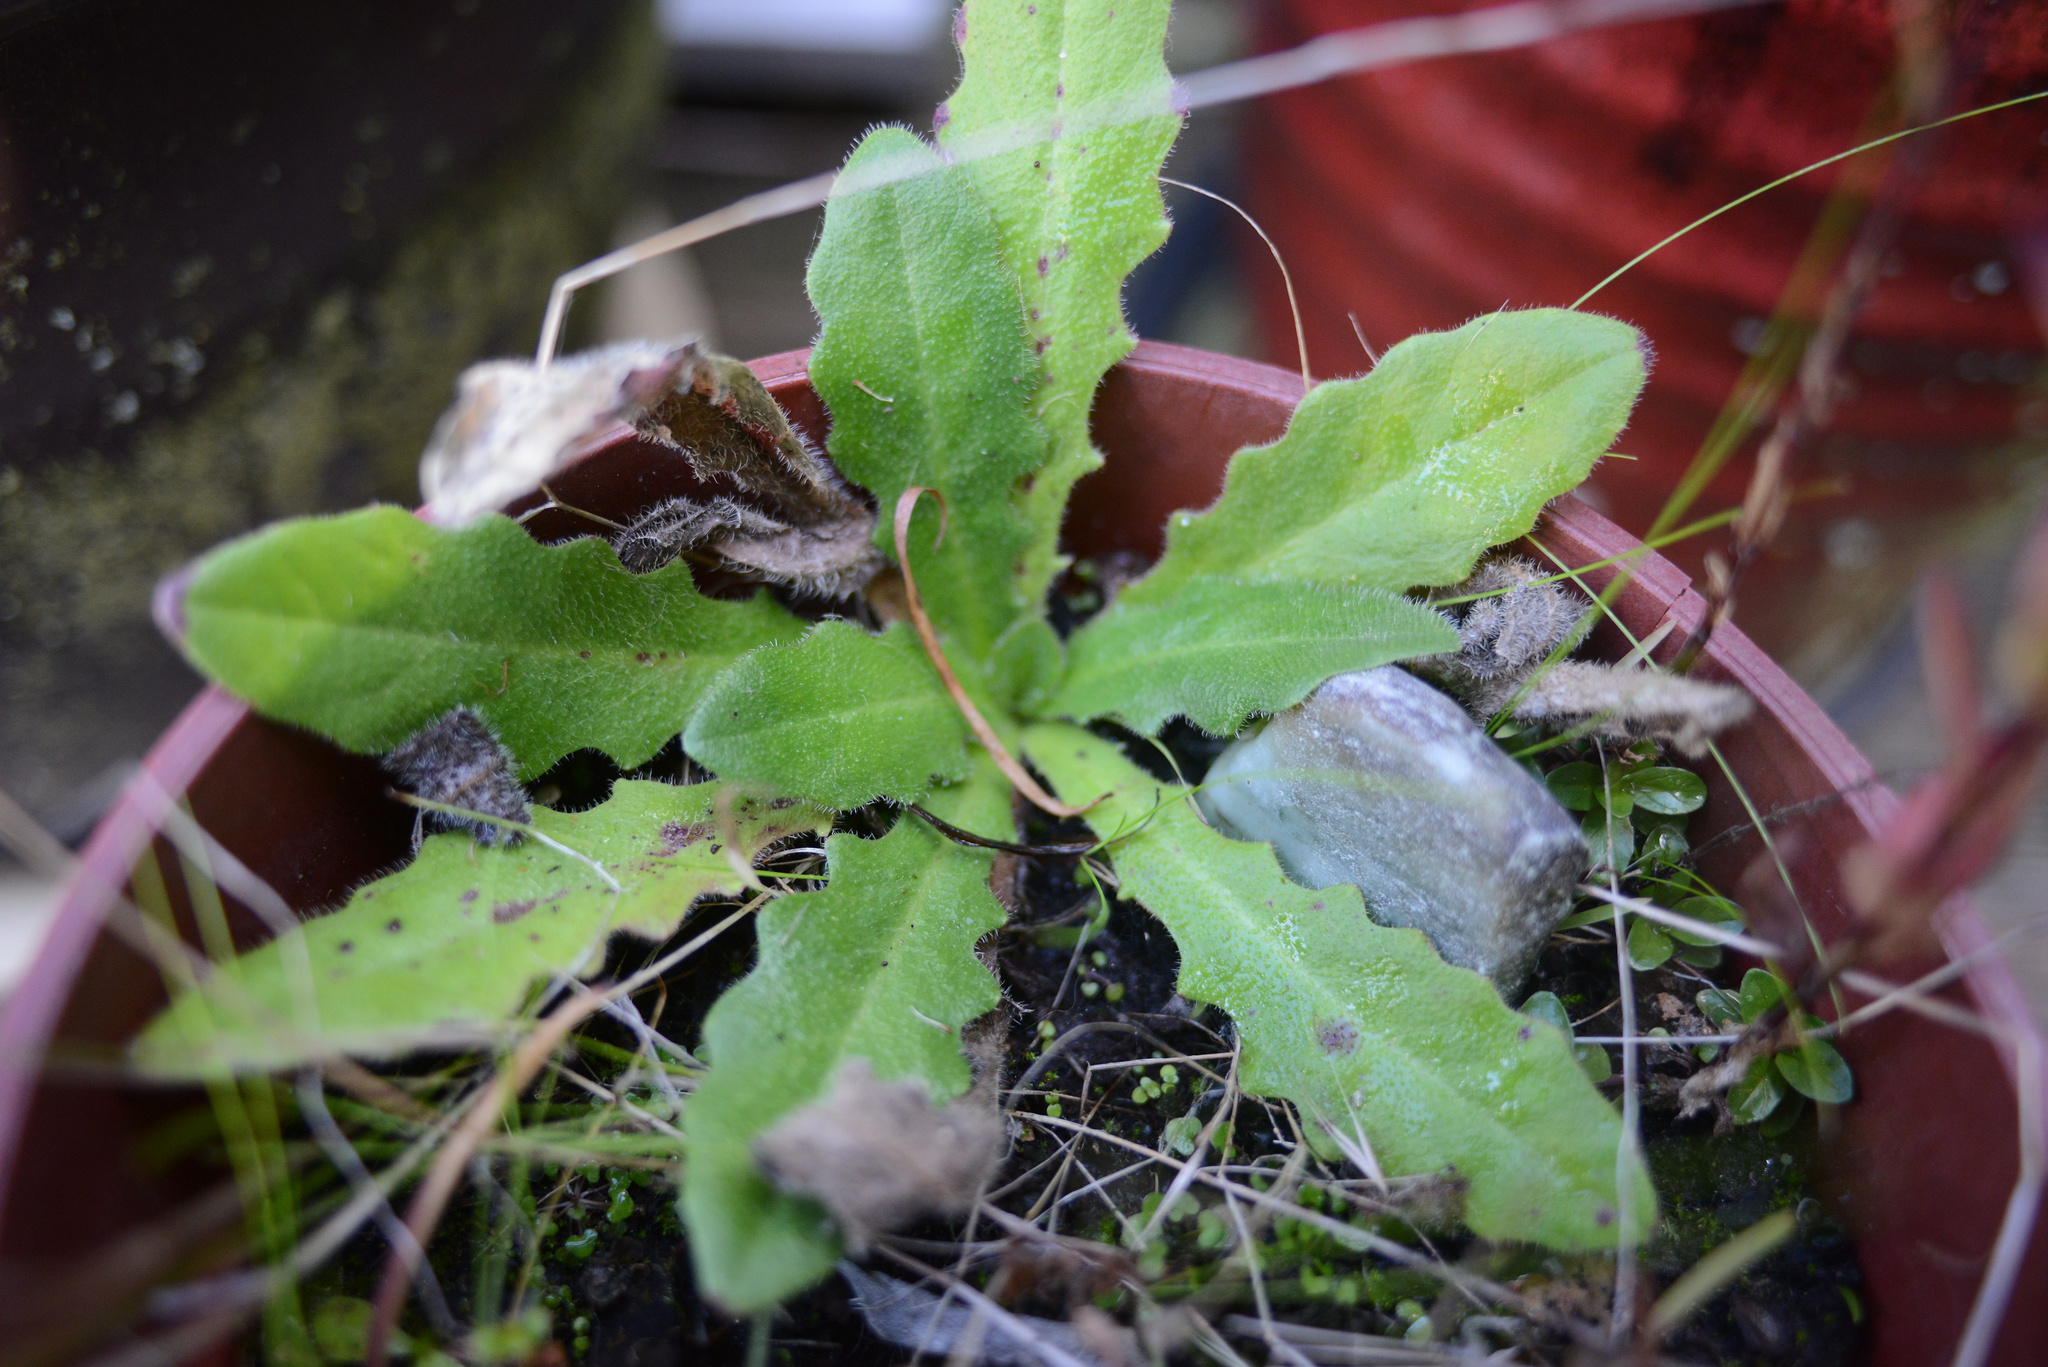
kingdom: Plantae
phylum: Tracheophyta
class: Magnoliopsida
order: Asterales
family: Asteraceae
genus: Hypochaeris
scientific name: Hypochaeris radicata
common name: Flatweed
